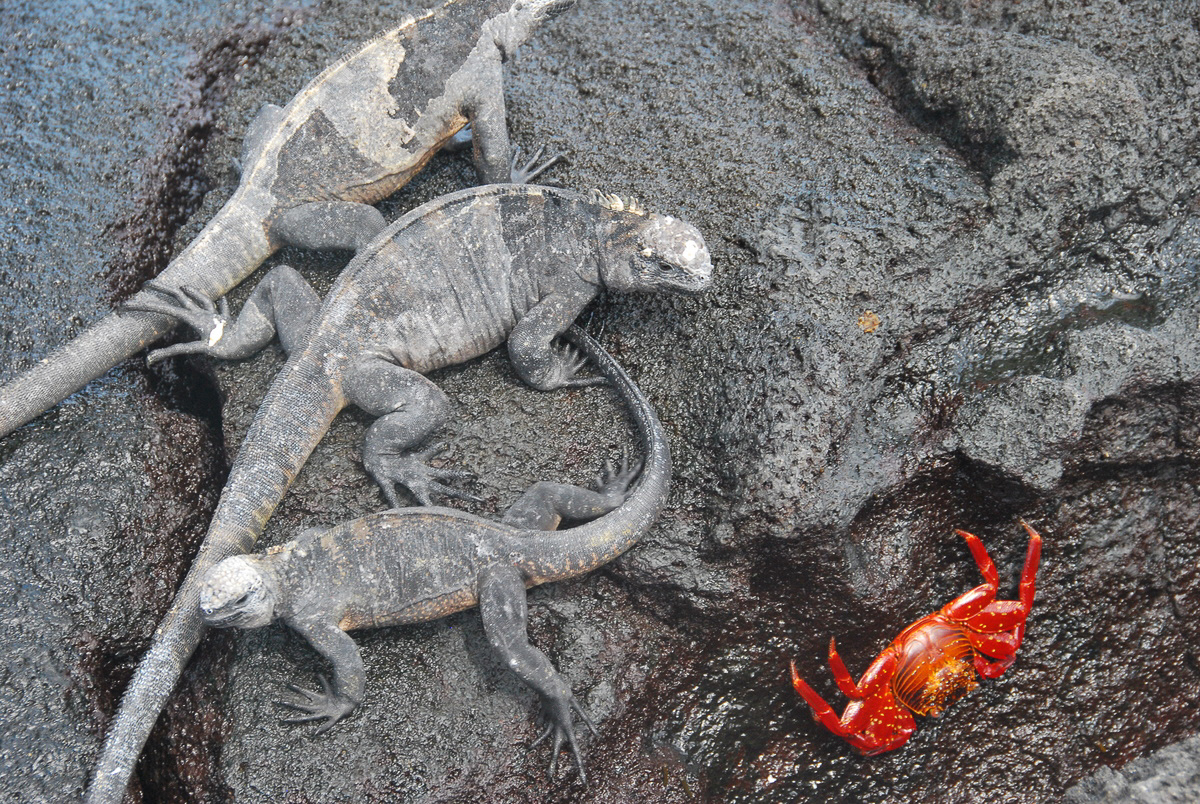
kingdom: Animalia
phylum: Chordata
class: Squamata
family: Iguanidae
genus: Amblyrhynchus
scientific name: Amblyrhynchus cristatus
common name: Marine iguana
